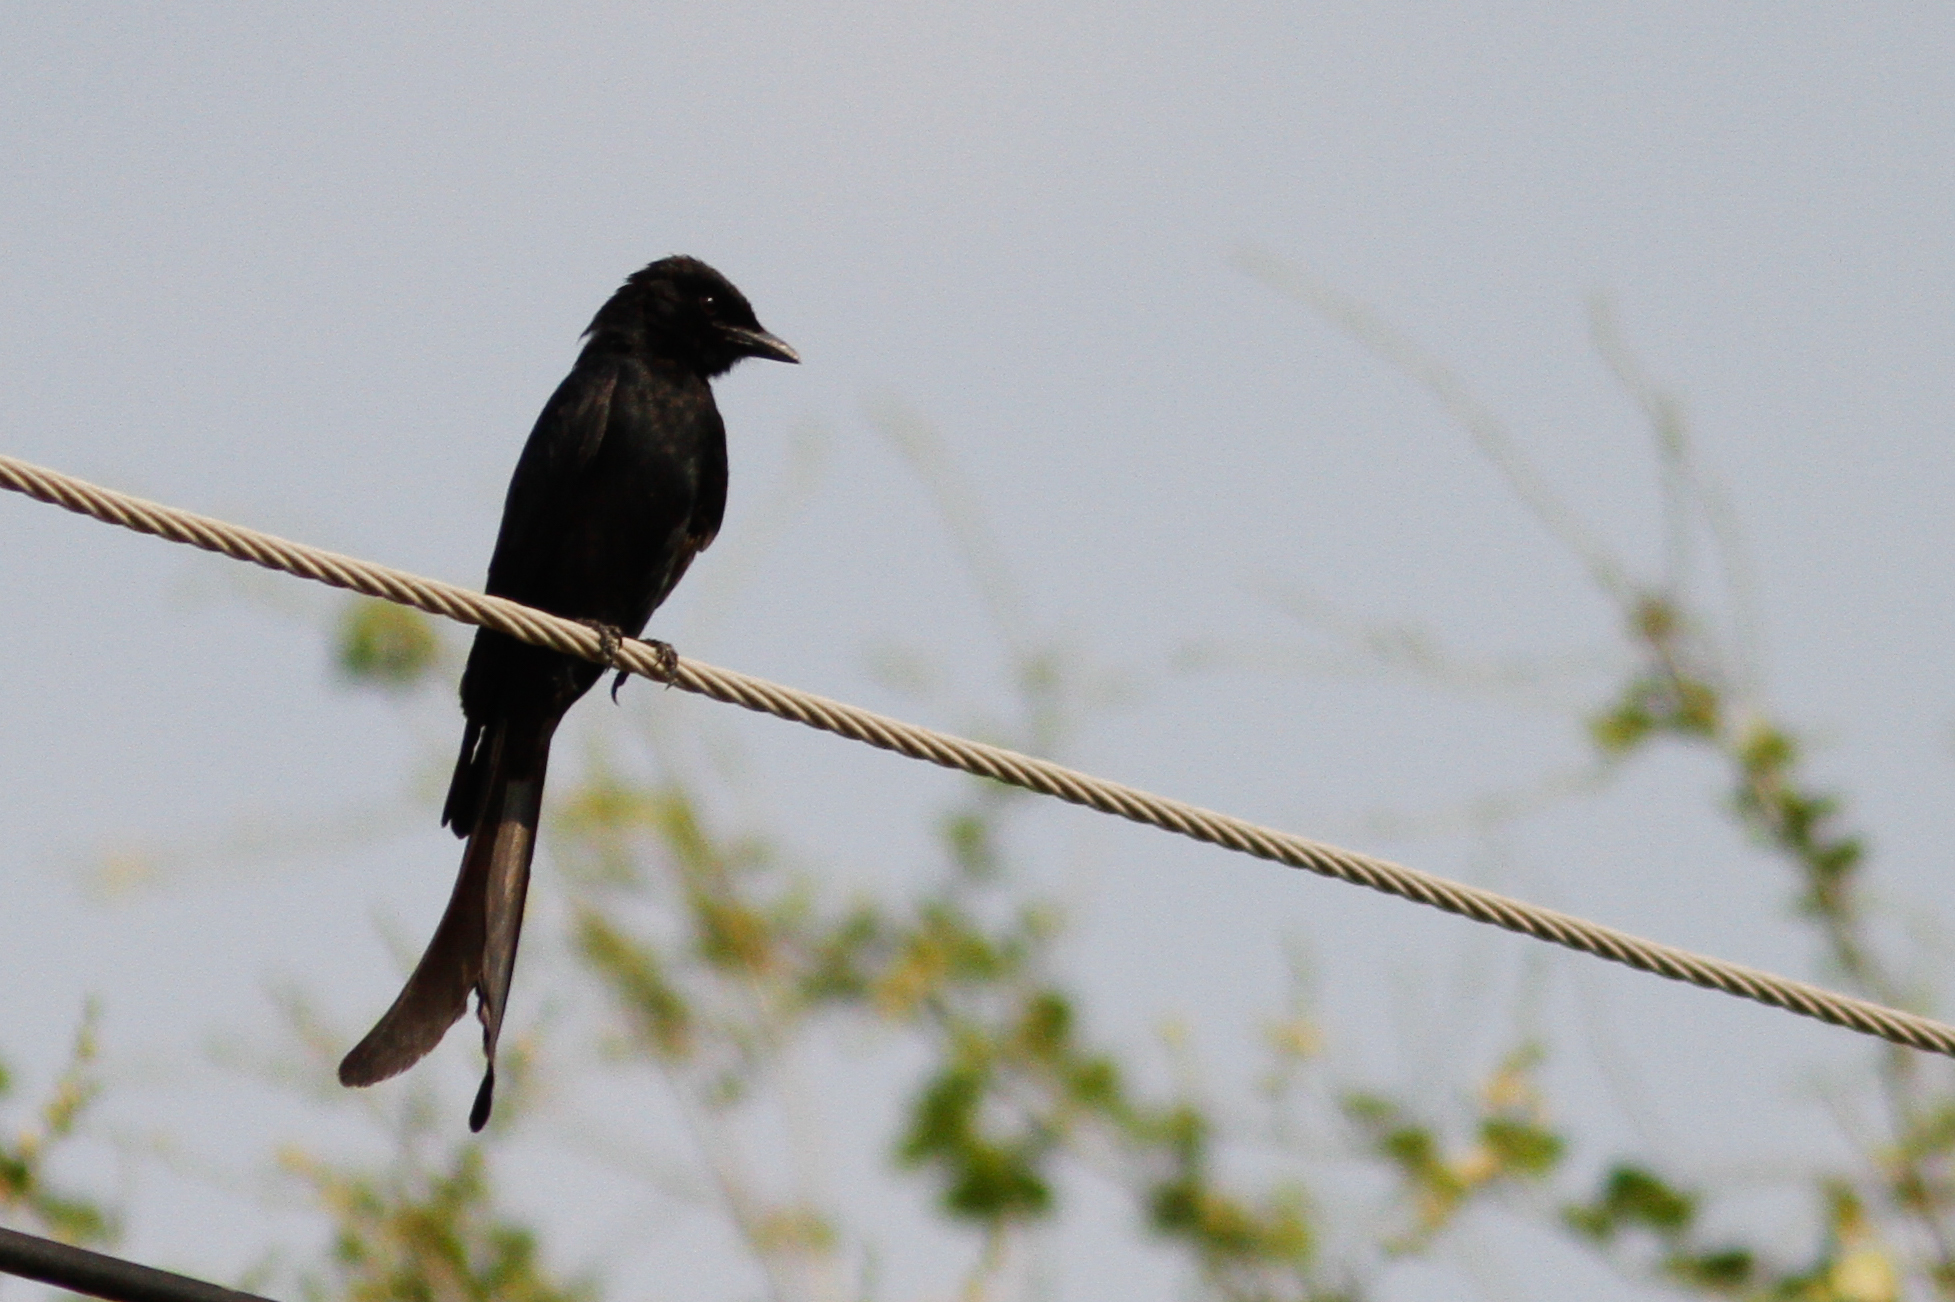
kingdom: Animalia
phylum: Chordata
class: Aves
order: Passeriformes
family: Dicruridae
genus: Dicrurus
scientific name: Dicrurus macrocercus
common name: Black drongo
